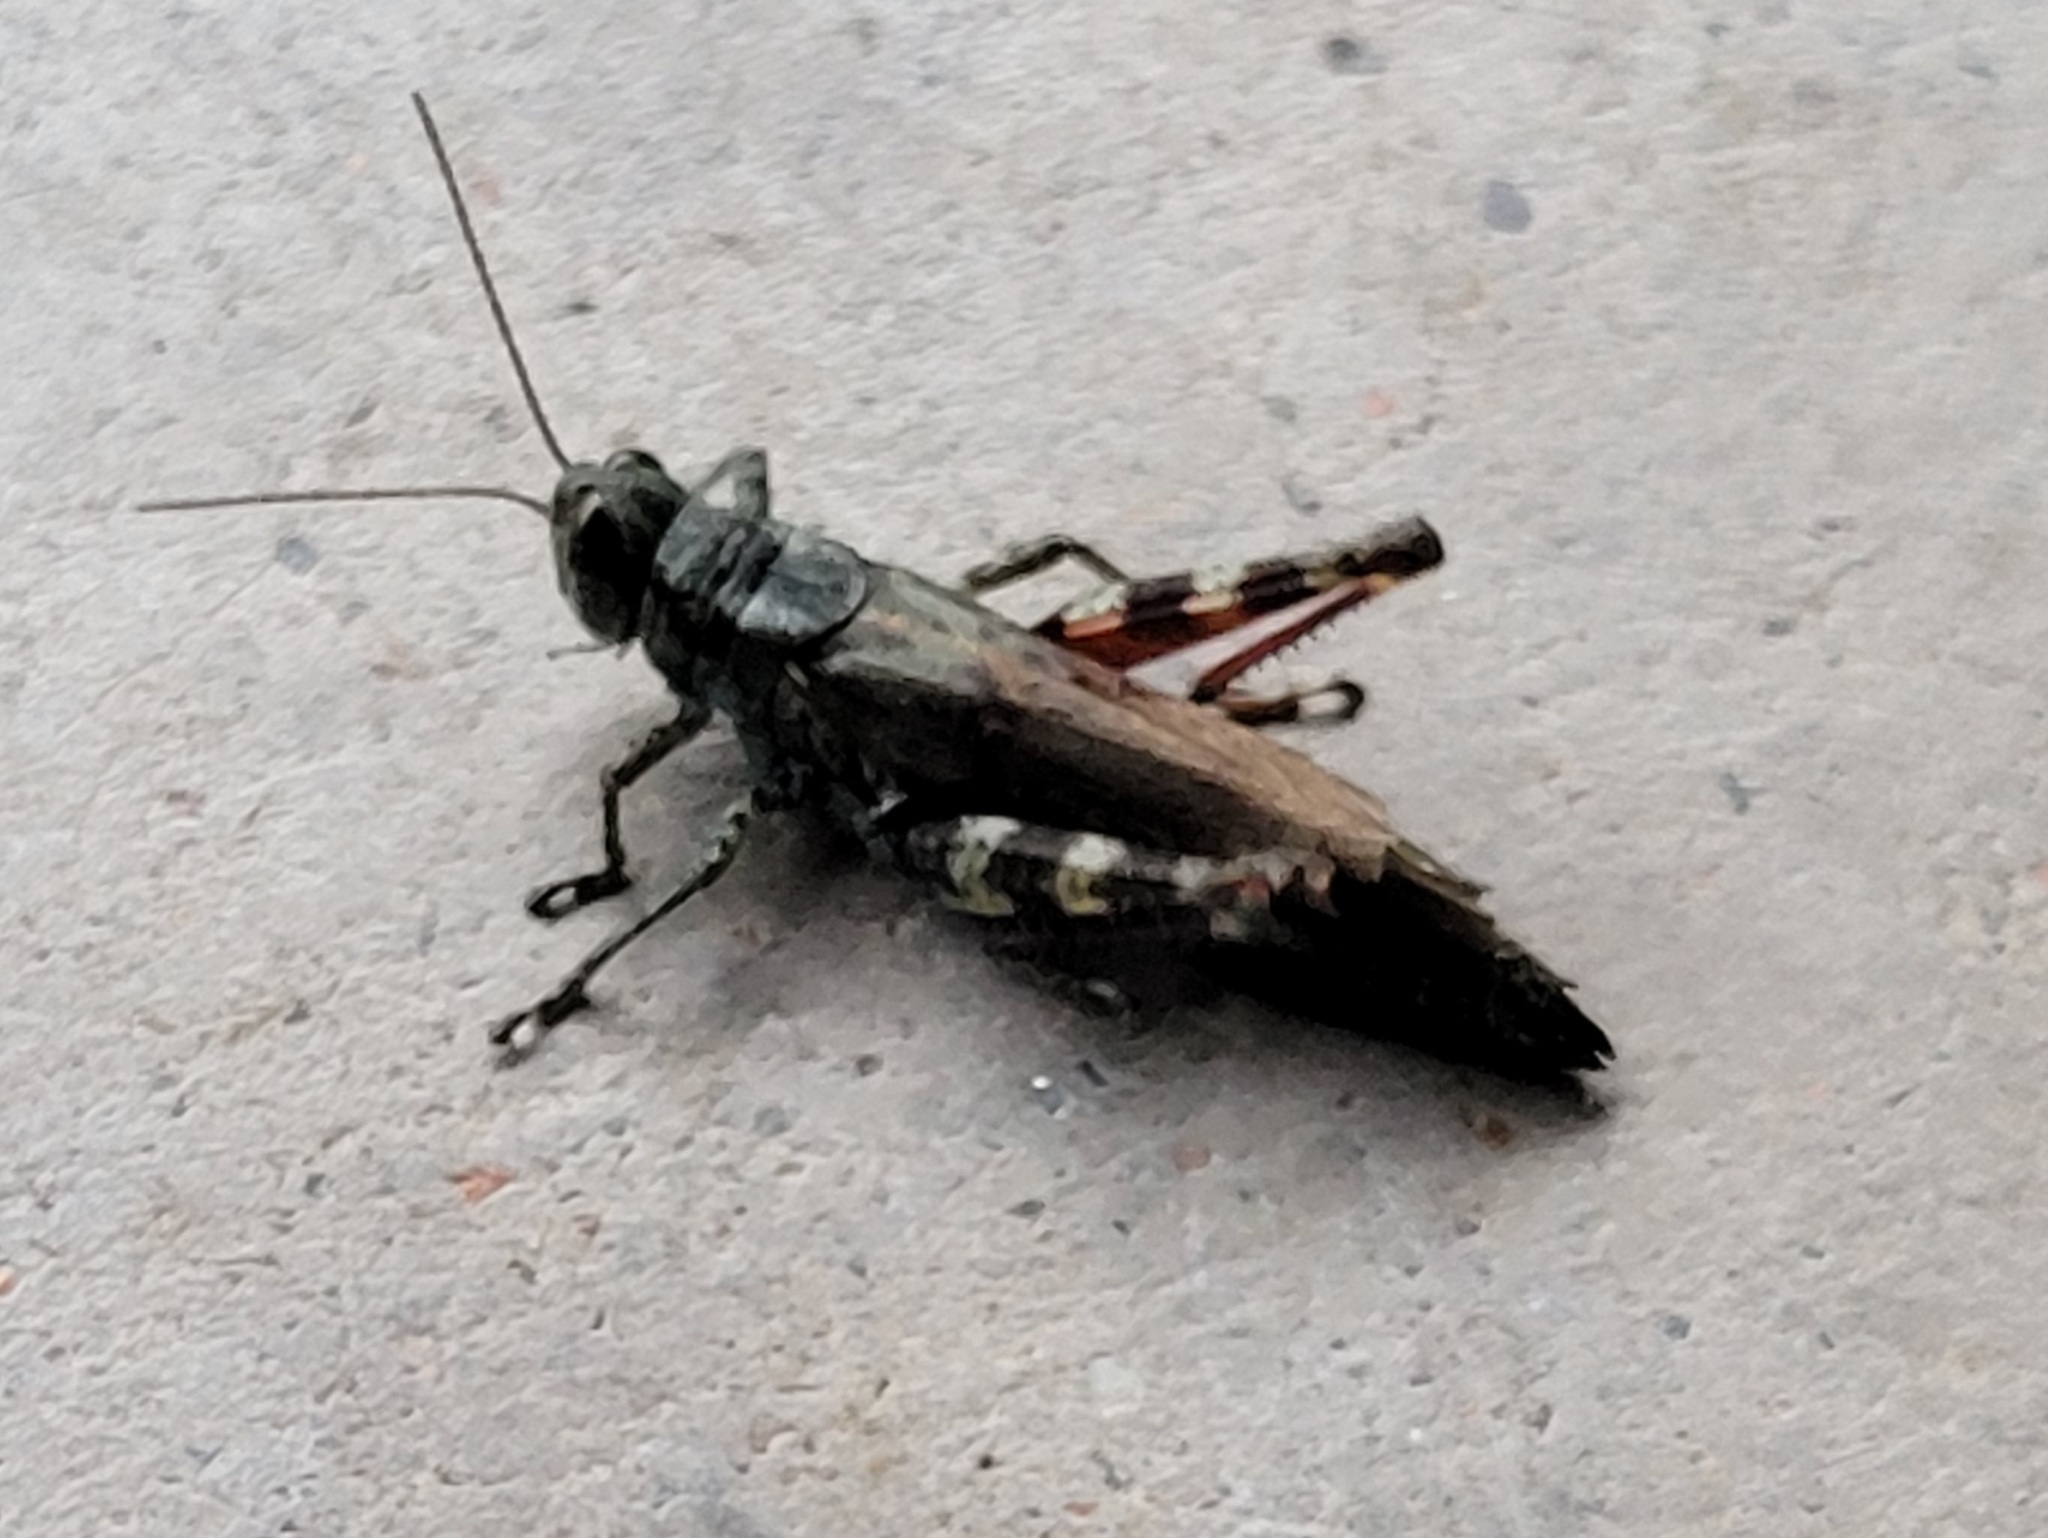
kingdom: Animalia
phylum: Arthropoda
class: Insecta
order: Orthoptera
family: Acrididae
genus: Melanoplus
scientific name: Melanoplus punctulatus
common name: Pine-tree spur-throat grasshopper
